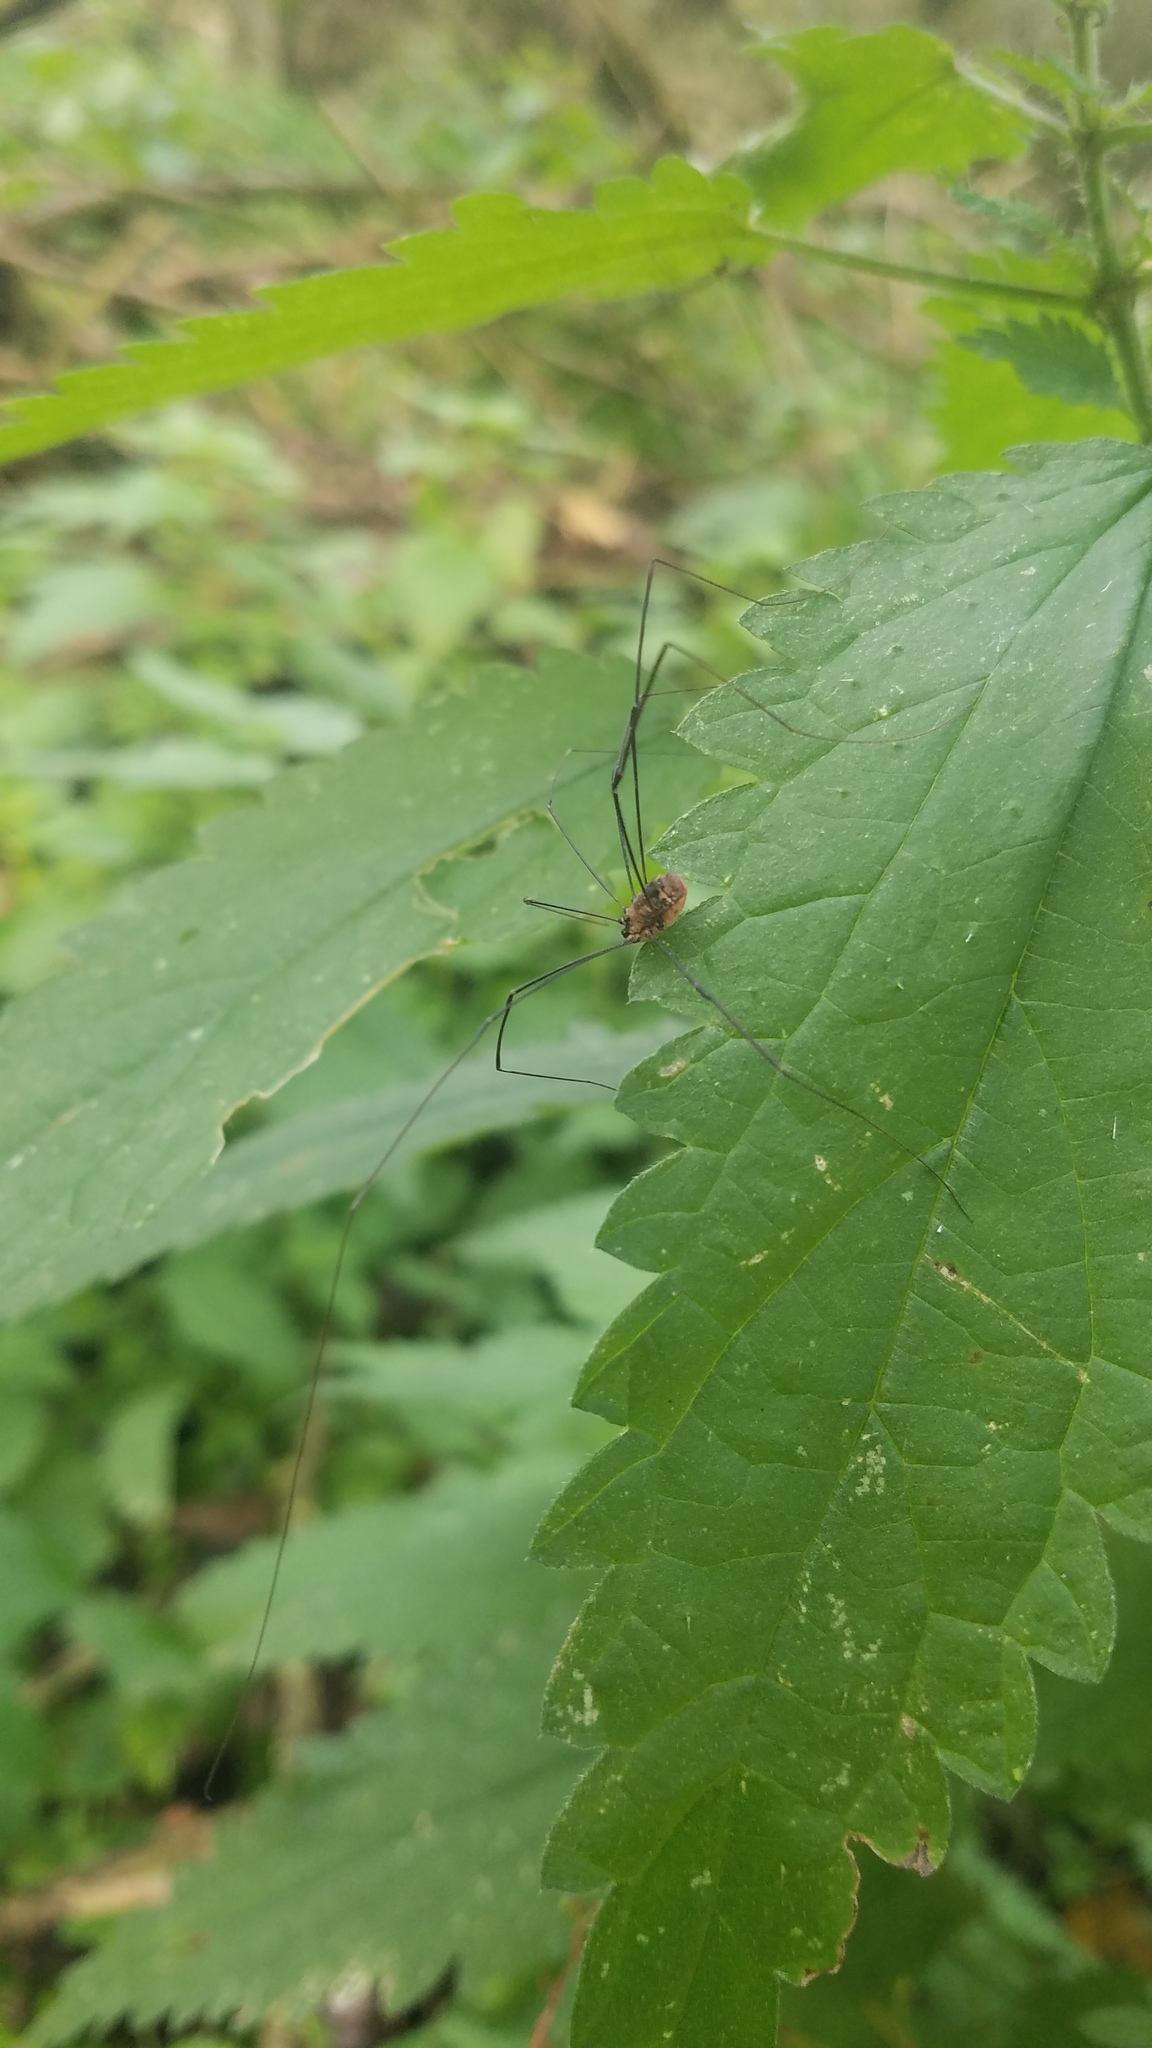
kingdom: Animalia
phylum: Arthropoda
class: Arachnida
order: Opiliones
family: Sclerosomatidae
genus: Leiobunum
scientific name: Leiobunum rotundum
